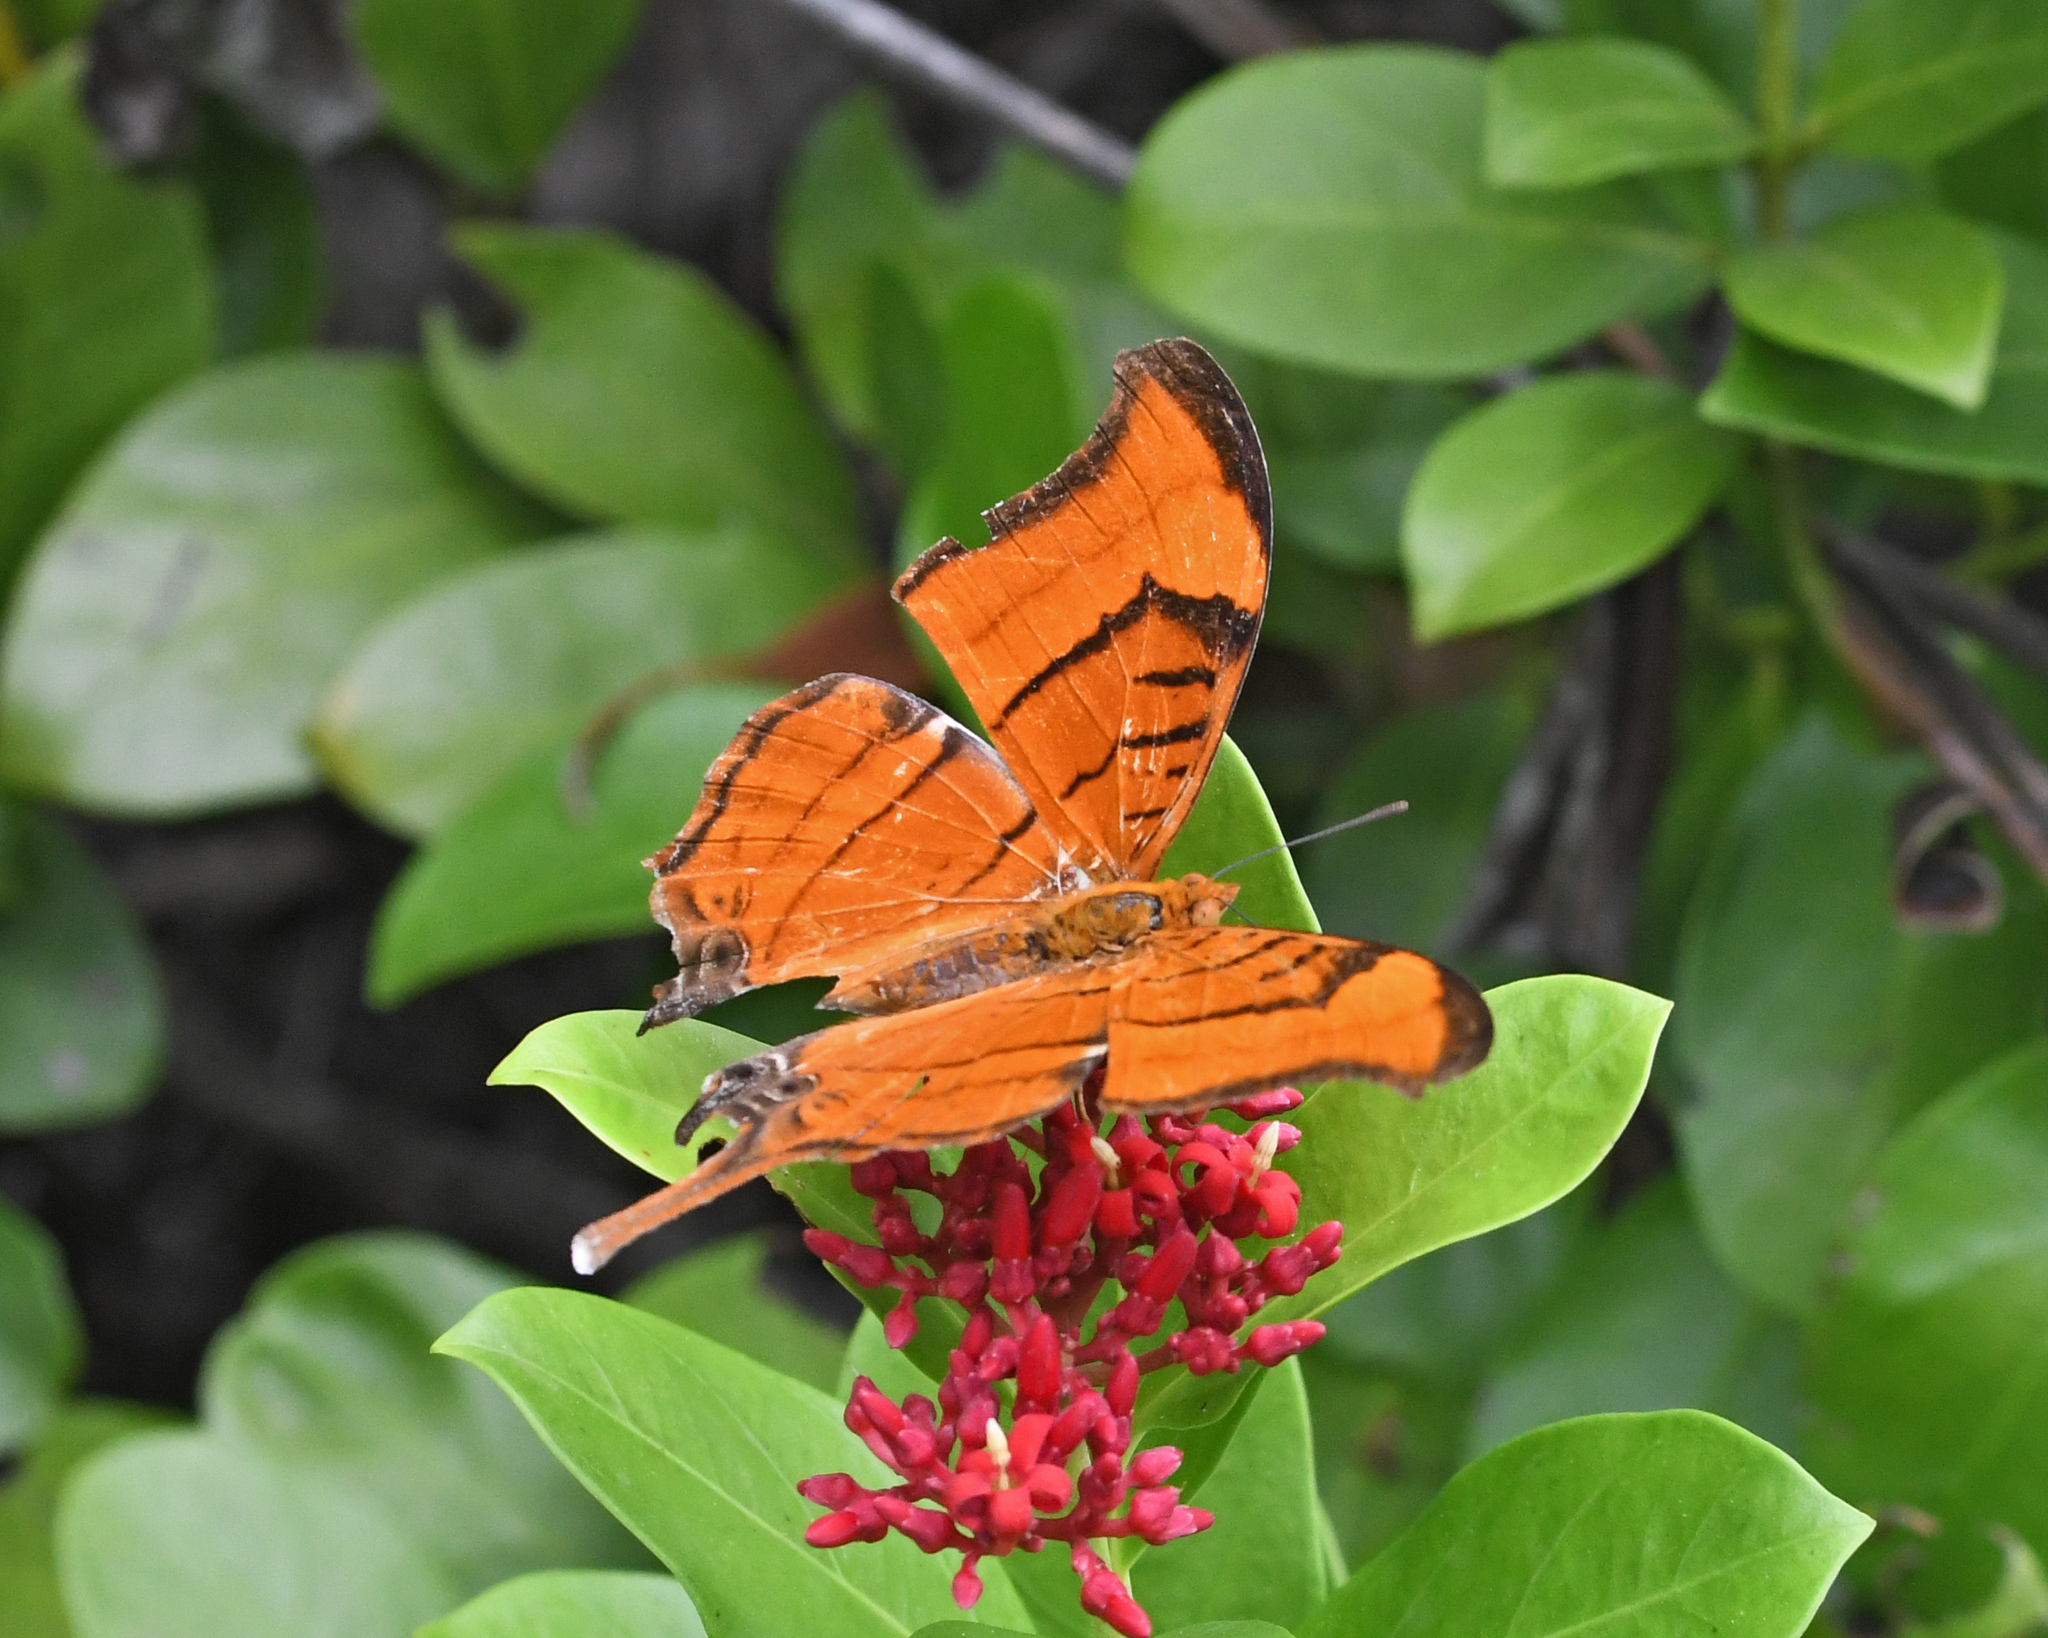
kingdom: Animalia
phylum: Arthropoda
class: Insecta
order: Lepidoptera
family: Nymphalidae
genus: Marpesia
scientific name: Marpesia eleuchea
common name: Antillean daggerwing
